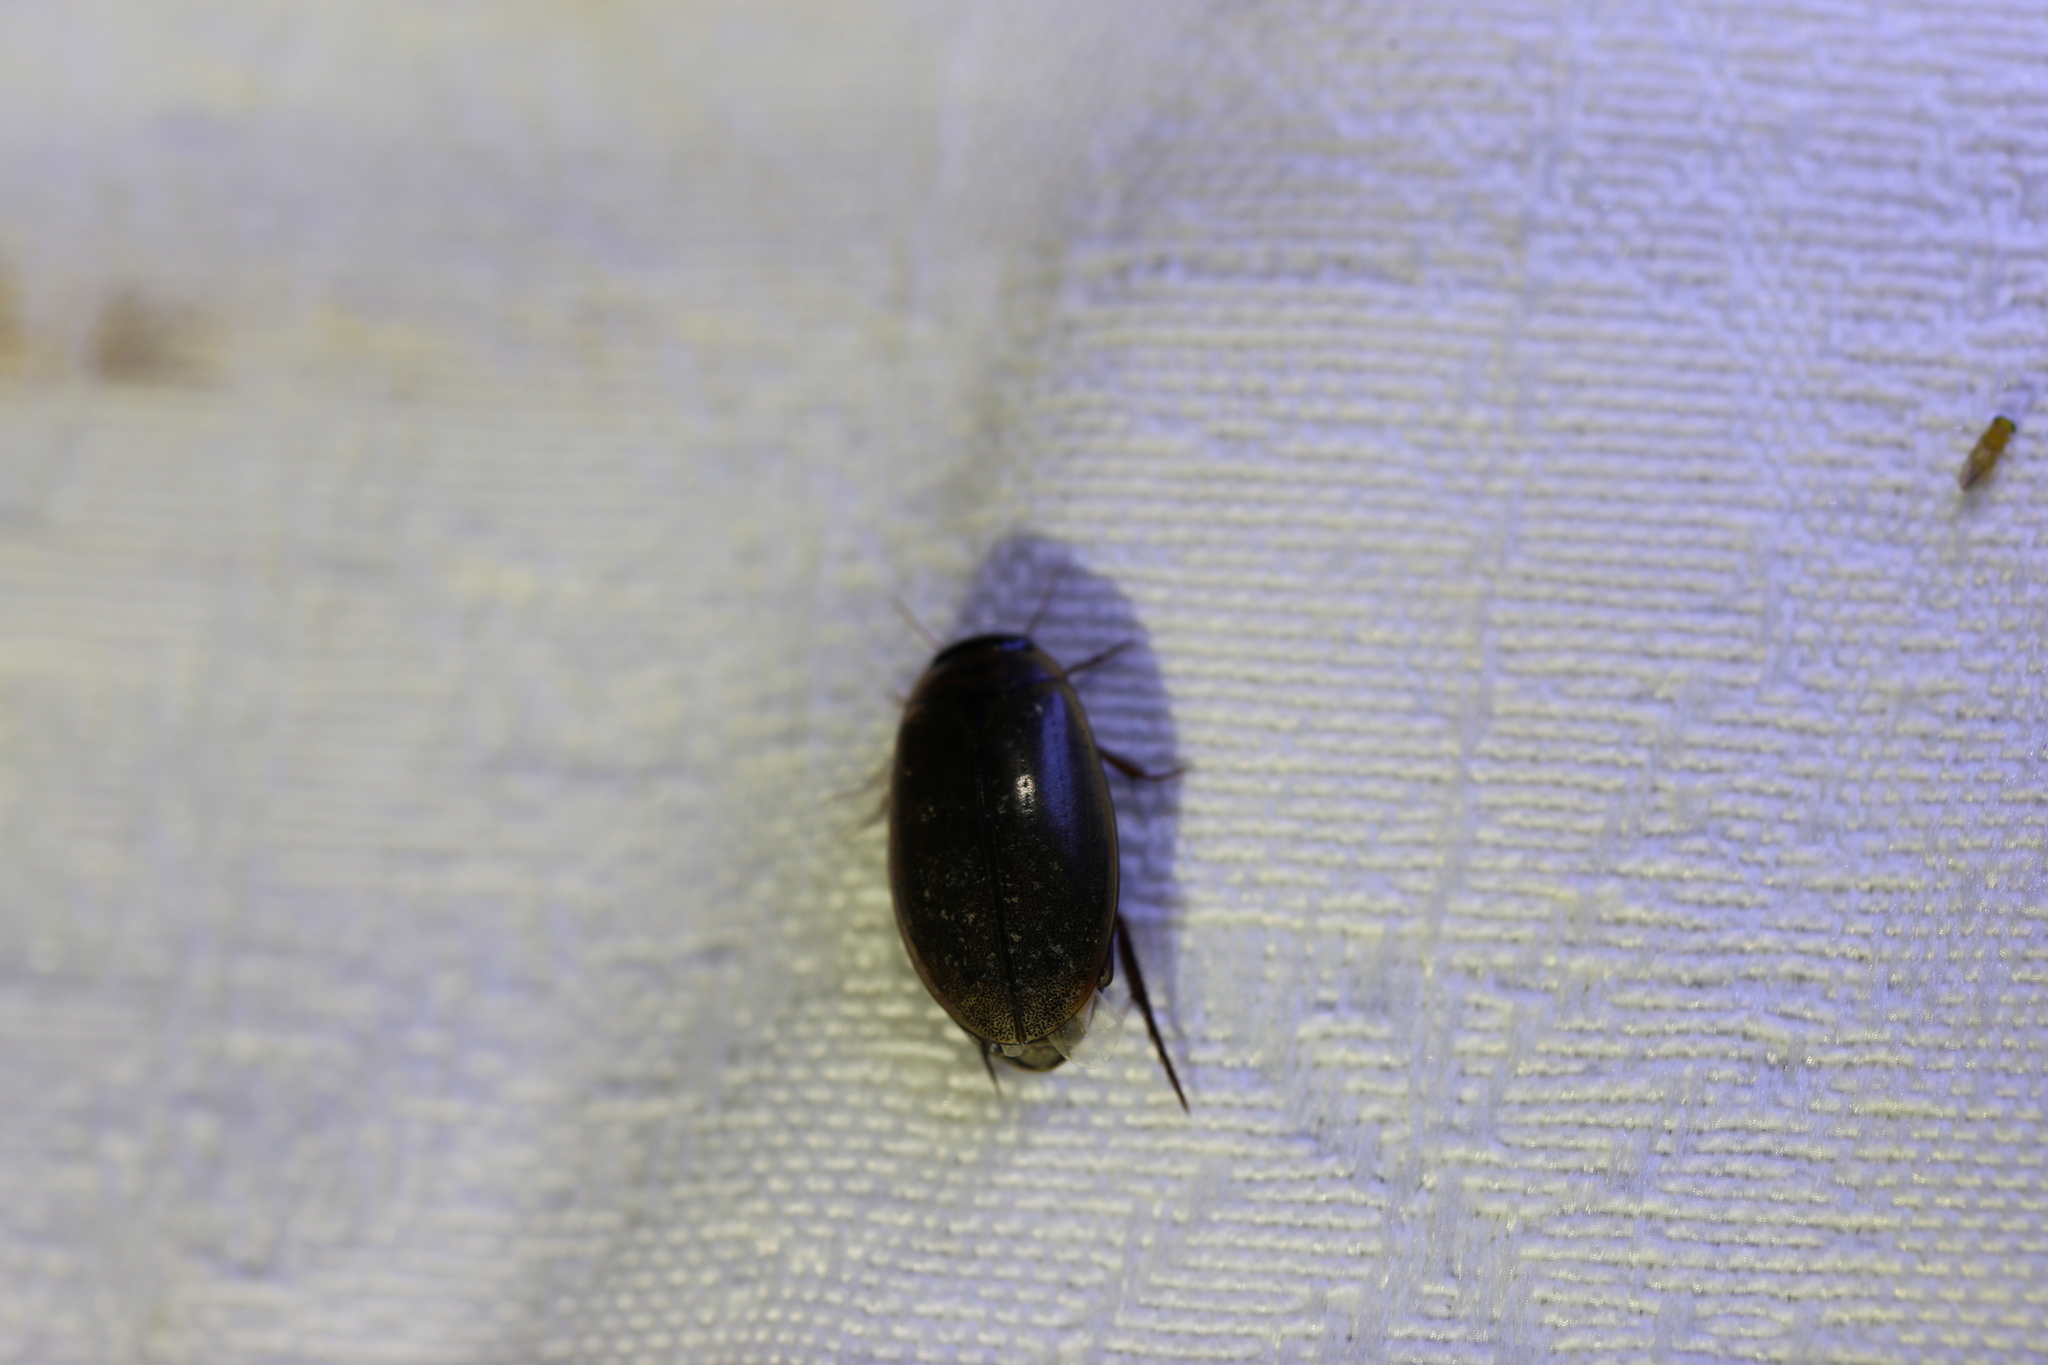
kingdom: Animalia
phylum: Arthropoda
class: Insecta
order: Coleoptera
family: Dytiscidae
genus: Rhantus
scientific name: Rhantus suturalis
